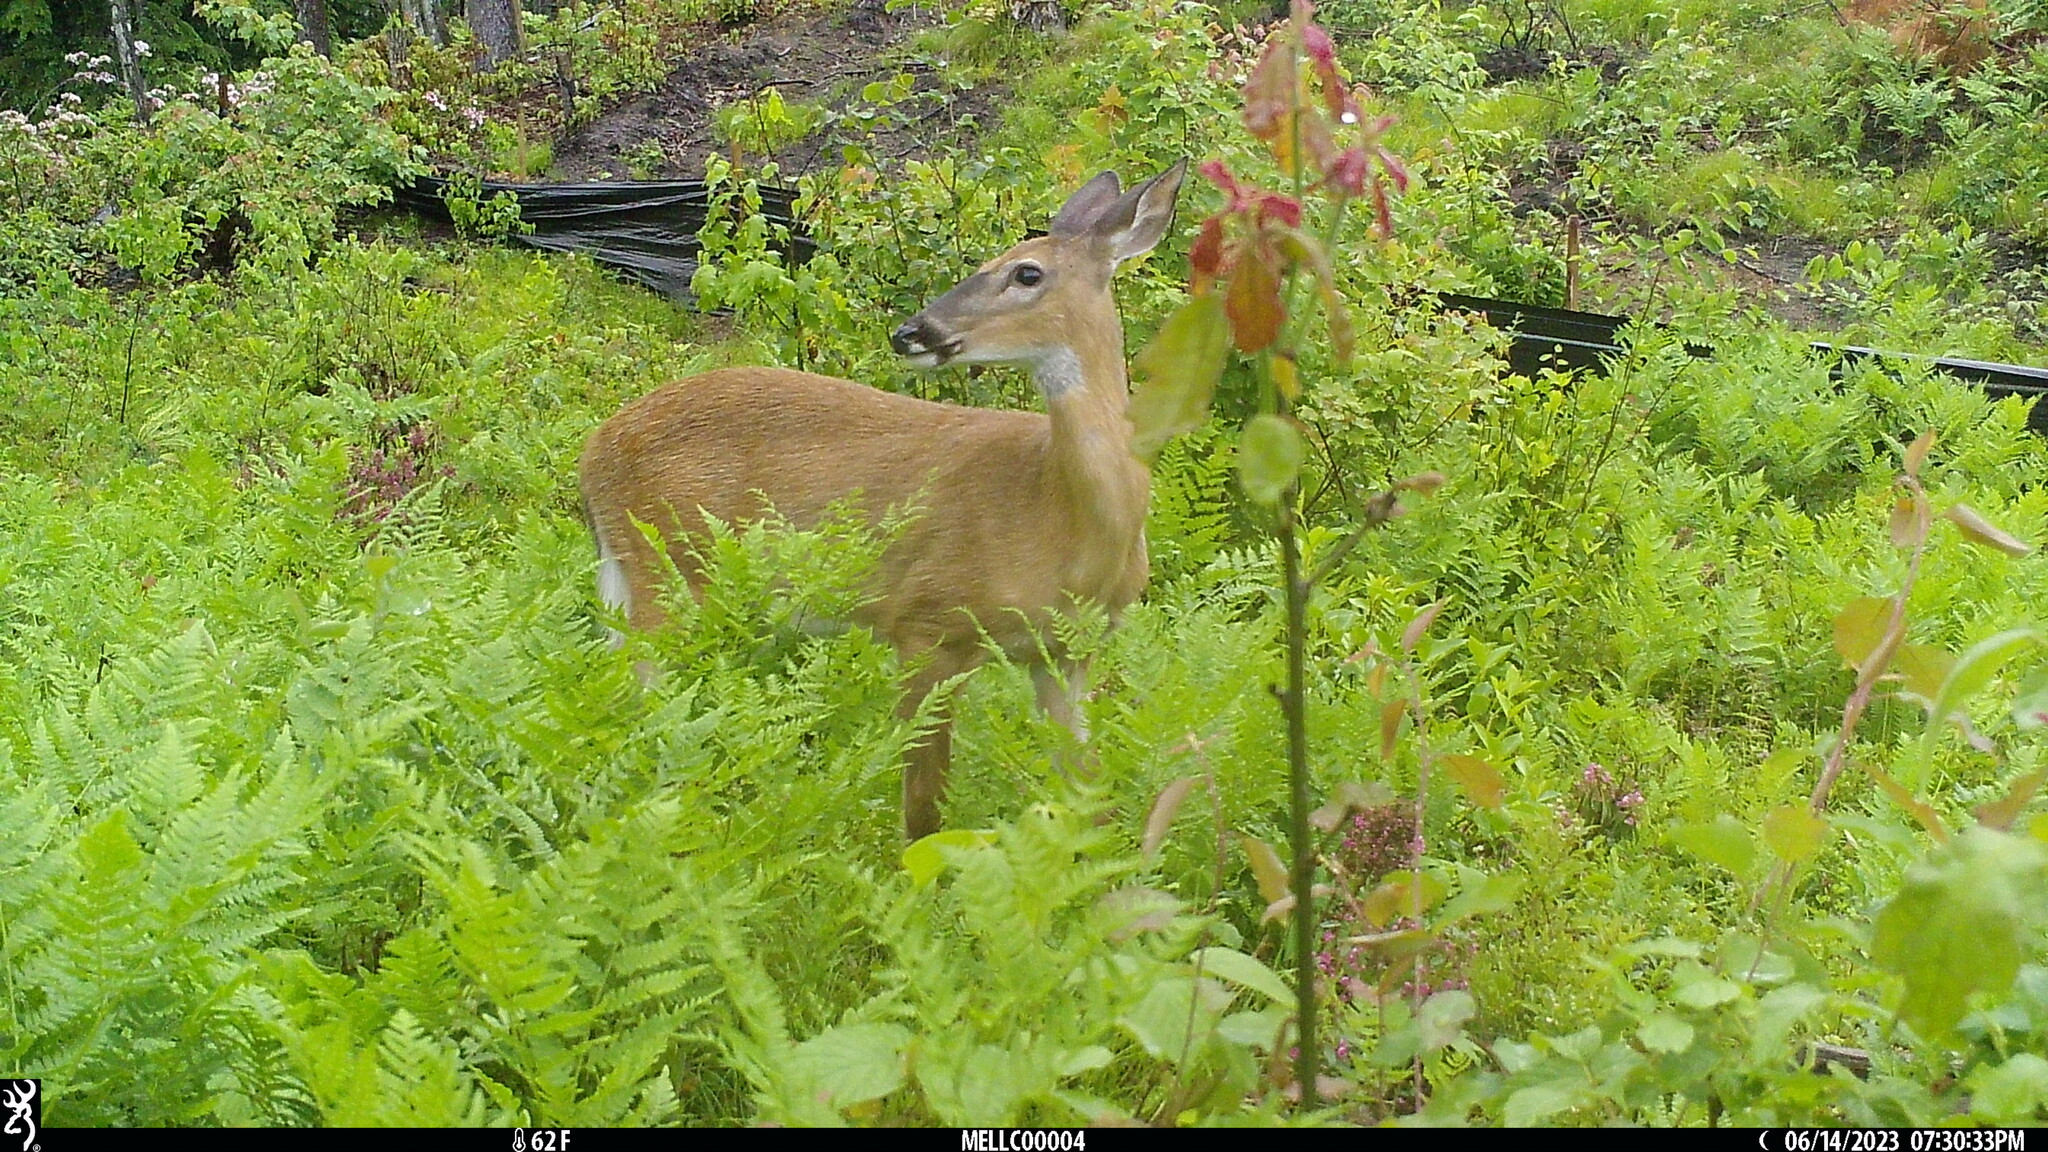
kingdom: Animalia
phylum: Chordata
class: Mammalia
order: Artiodactyla
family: Cervidae
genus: Odocoileus
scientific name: Odocoileus virginianus
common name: White-tailed deer
